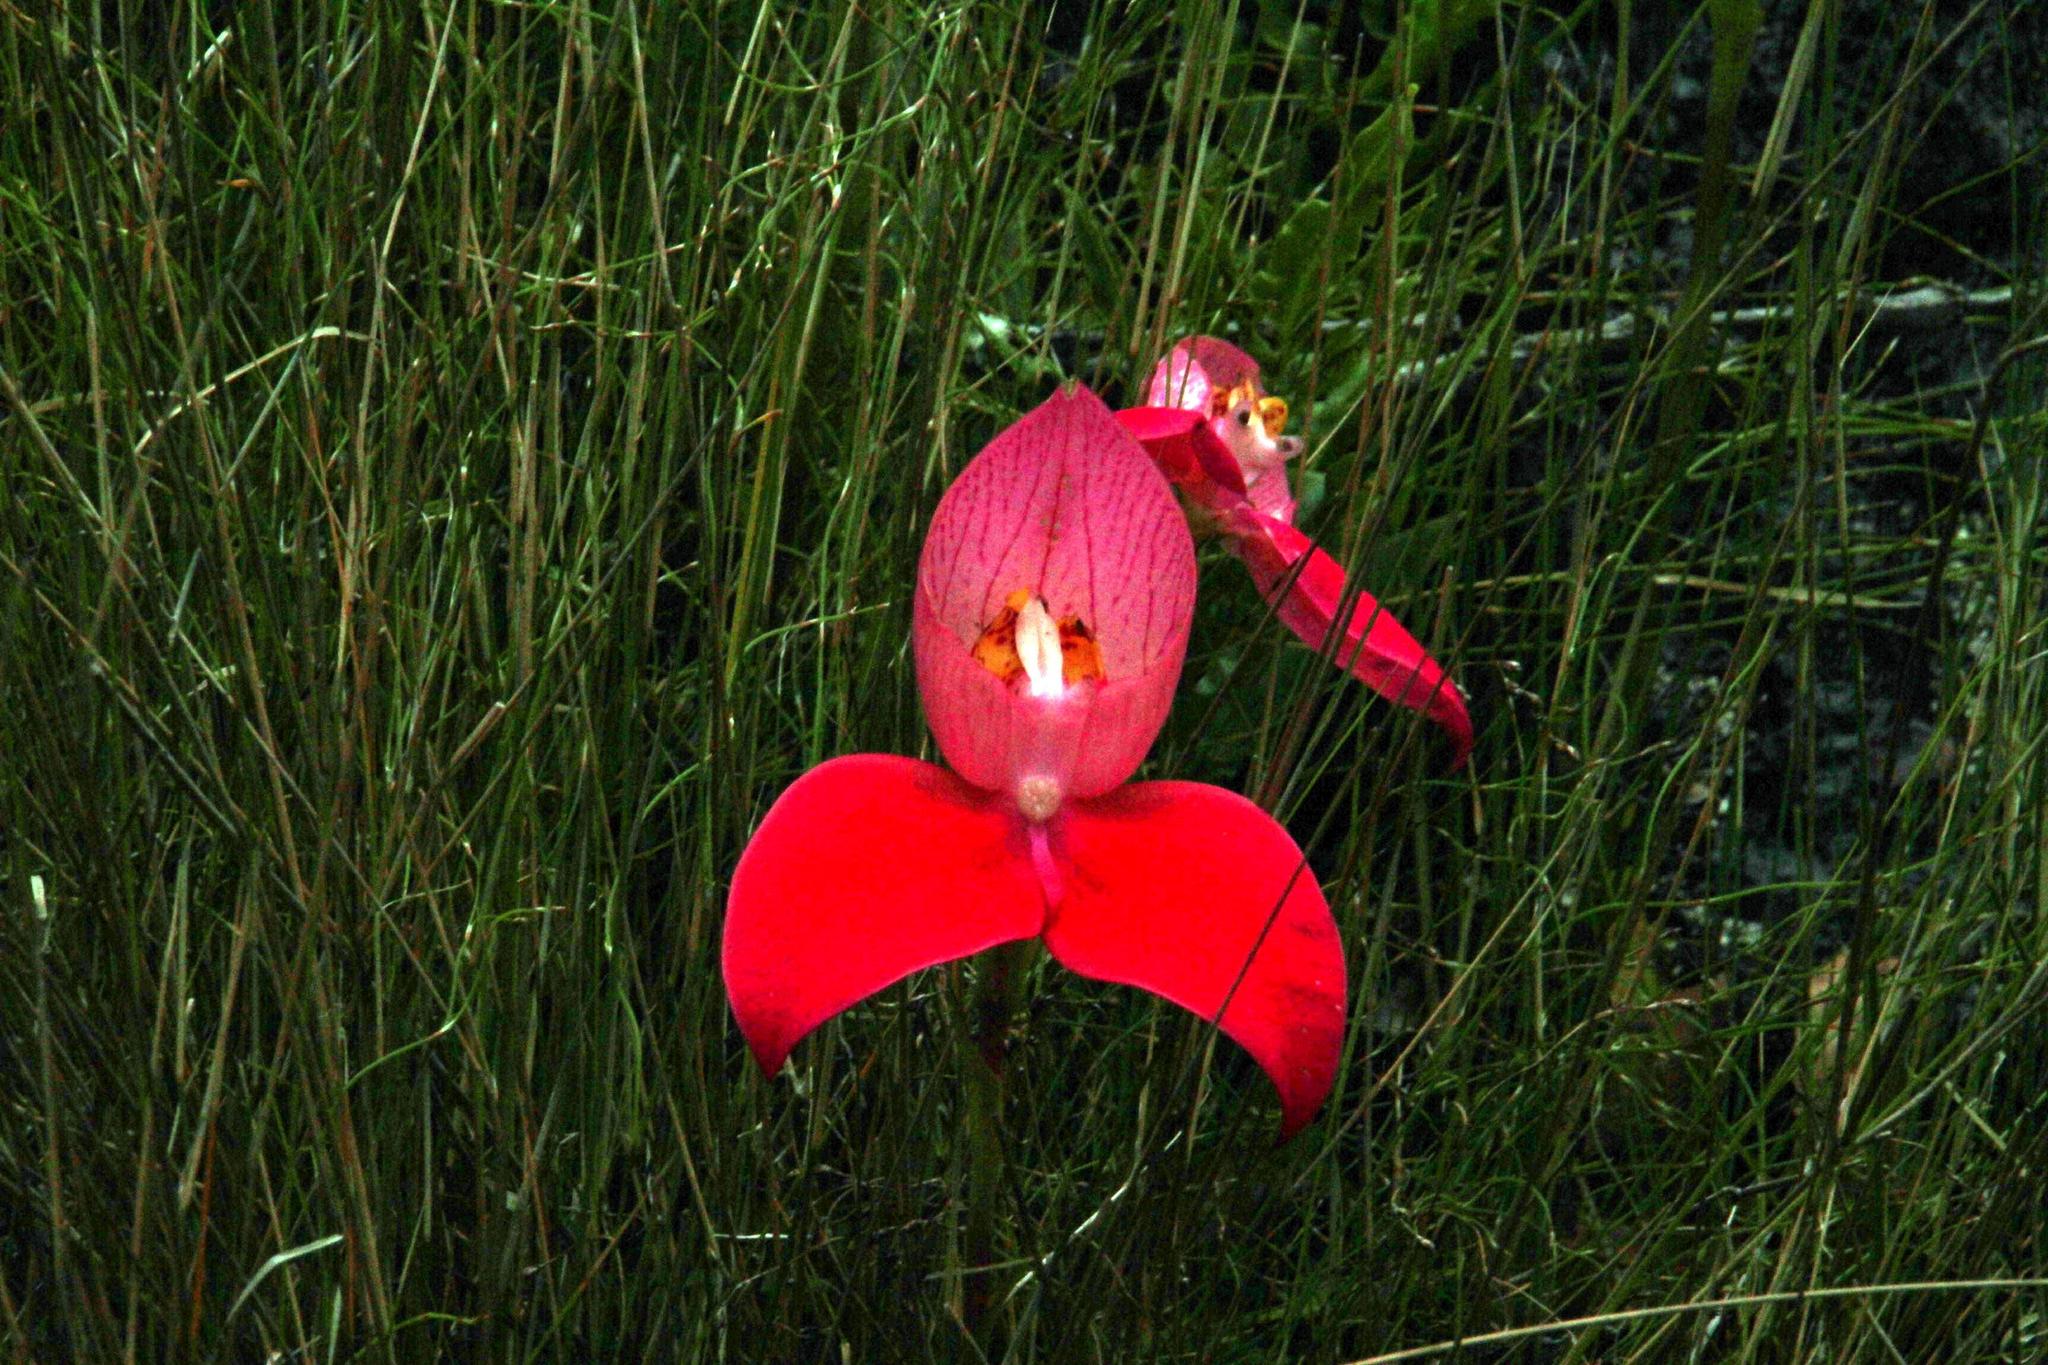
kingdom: Plantae
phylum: Tracheophyta
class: Liliopsida
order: Asparagales
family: Orchidaceae
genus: Disa
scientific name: Disa uniflora
